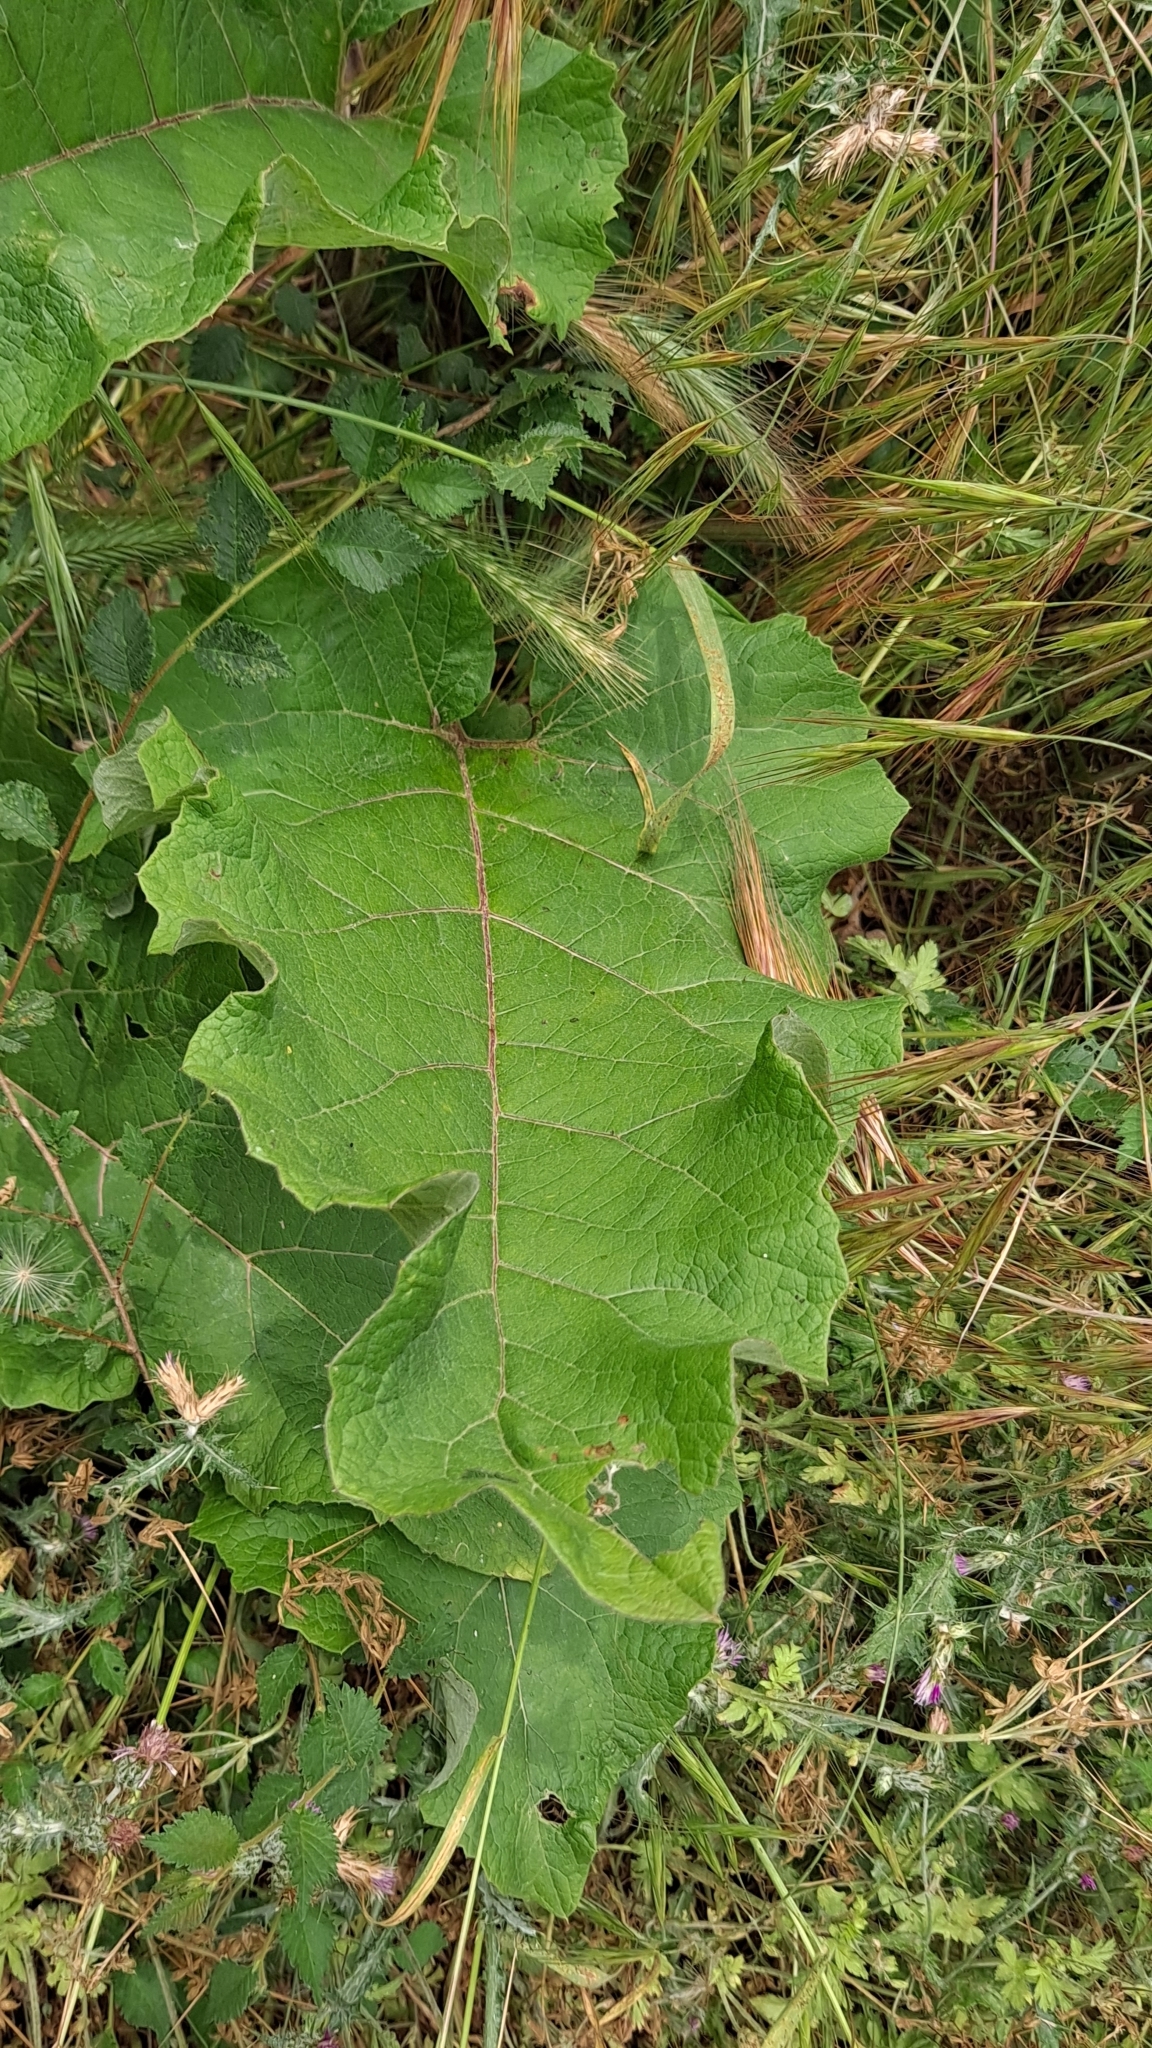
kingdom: Plantae
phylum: Tracheophyta
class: Magnoliopsida
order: Asterales
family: Asteraceae
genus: Arctium
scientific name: Arctium minus
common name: Lesser burdock
